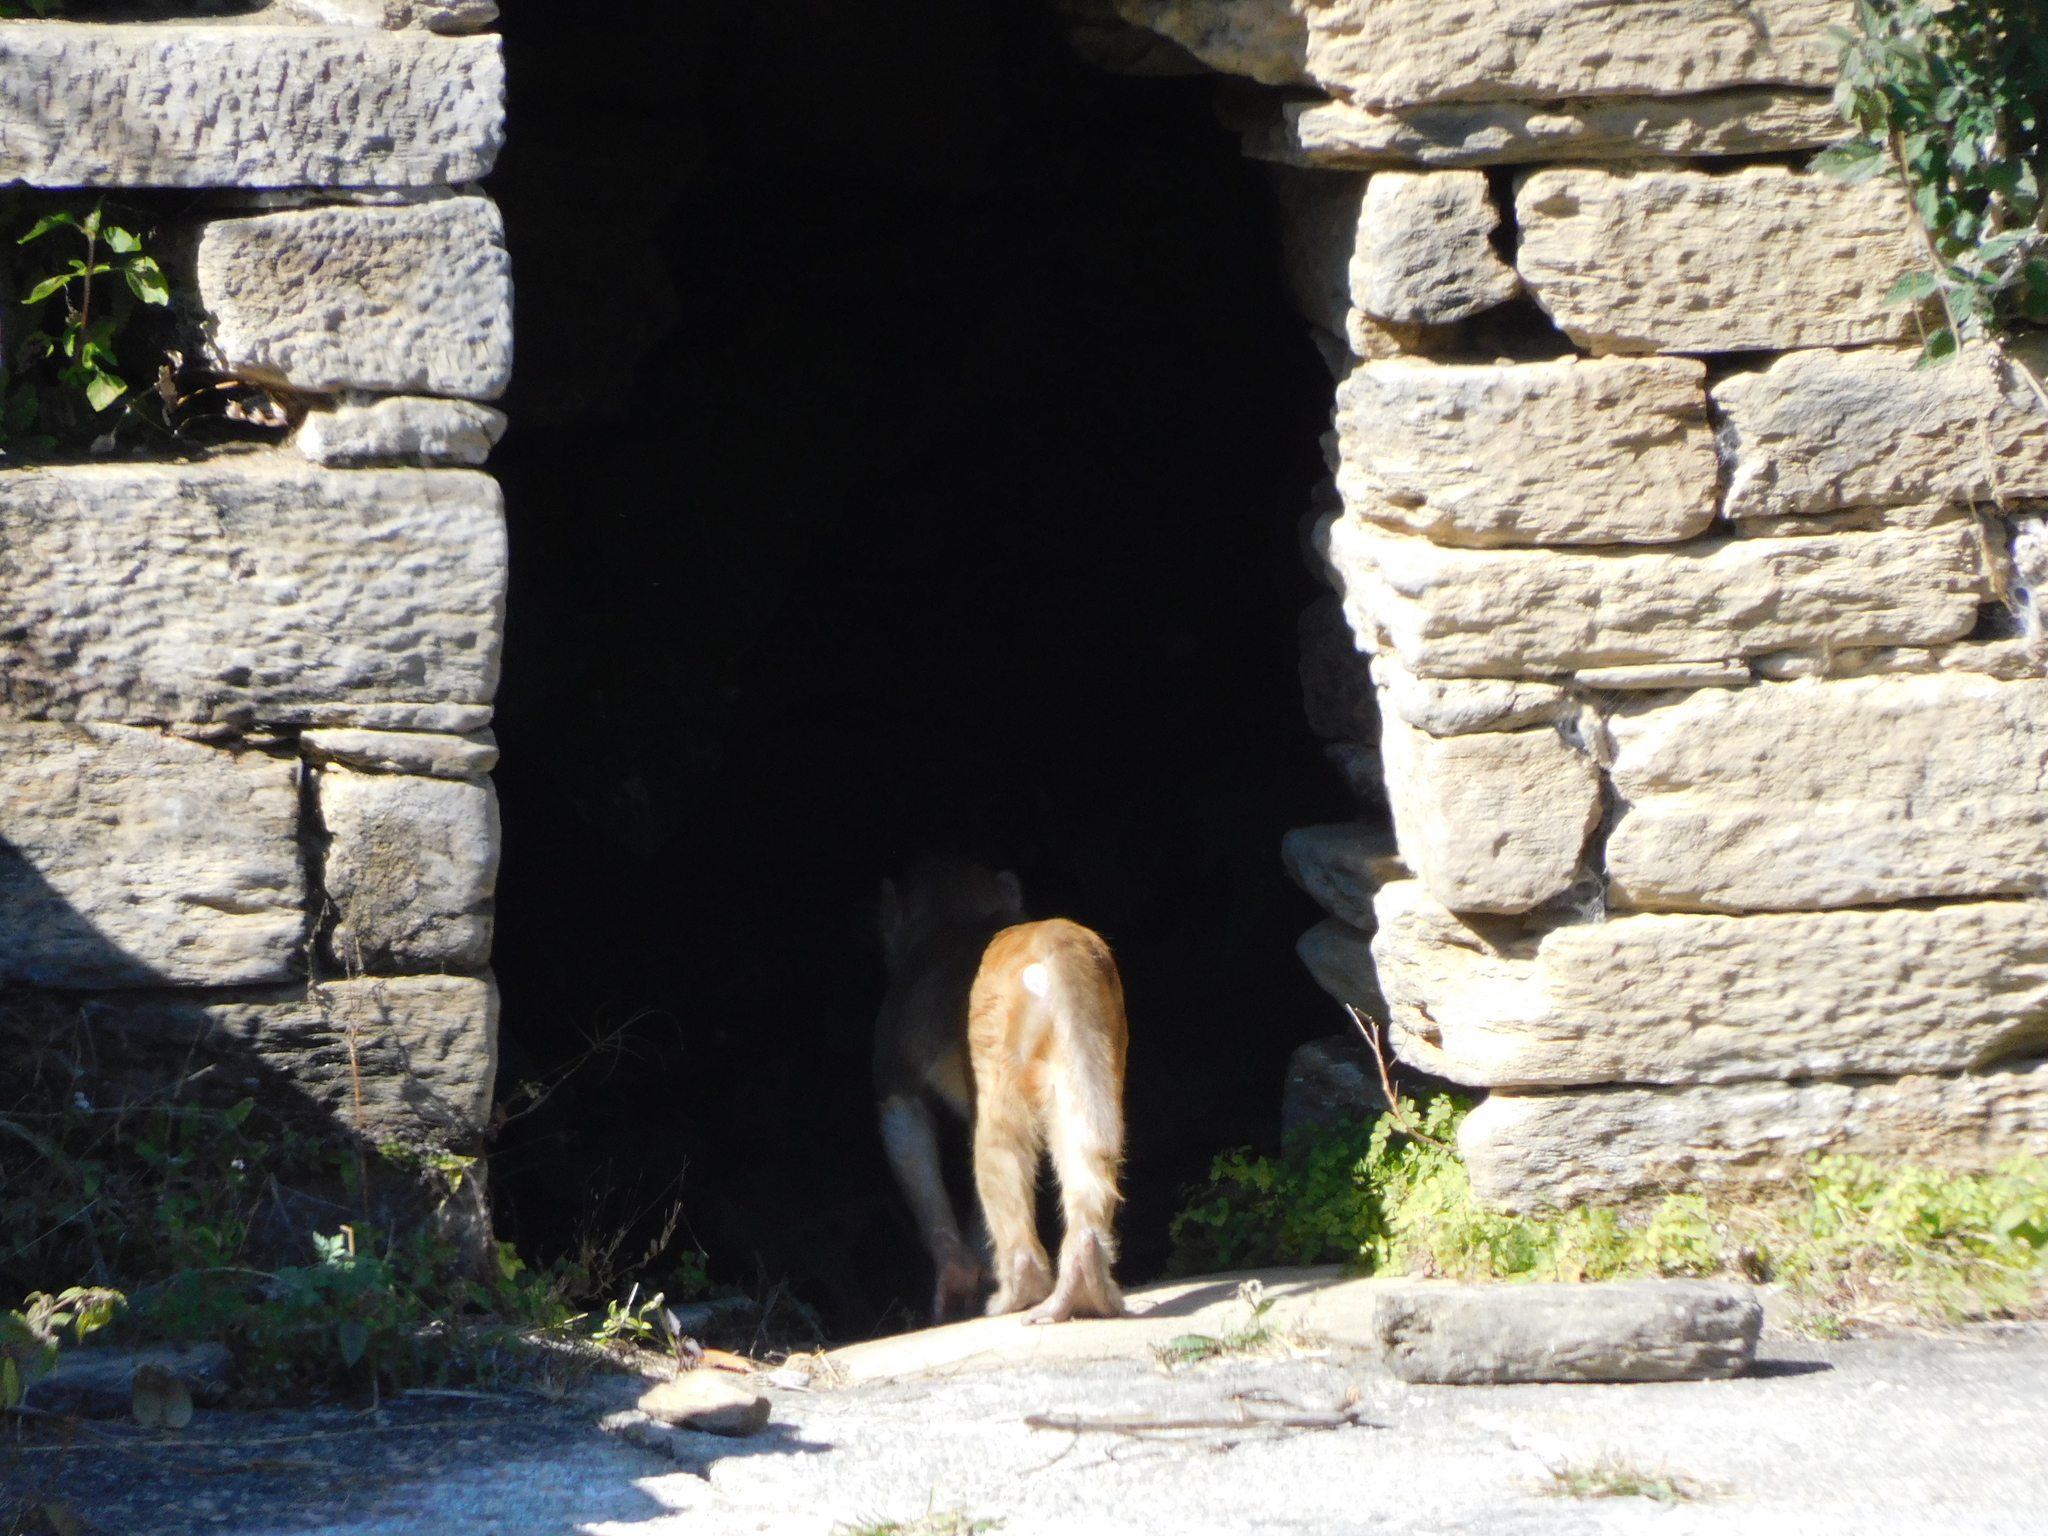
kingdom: Animalia
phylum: Chordata
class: Mammalia
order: Primates
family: Cercopithecidae
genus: Macaca
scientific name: Macaca mulatta
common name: Rhesus monkey
